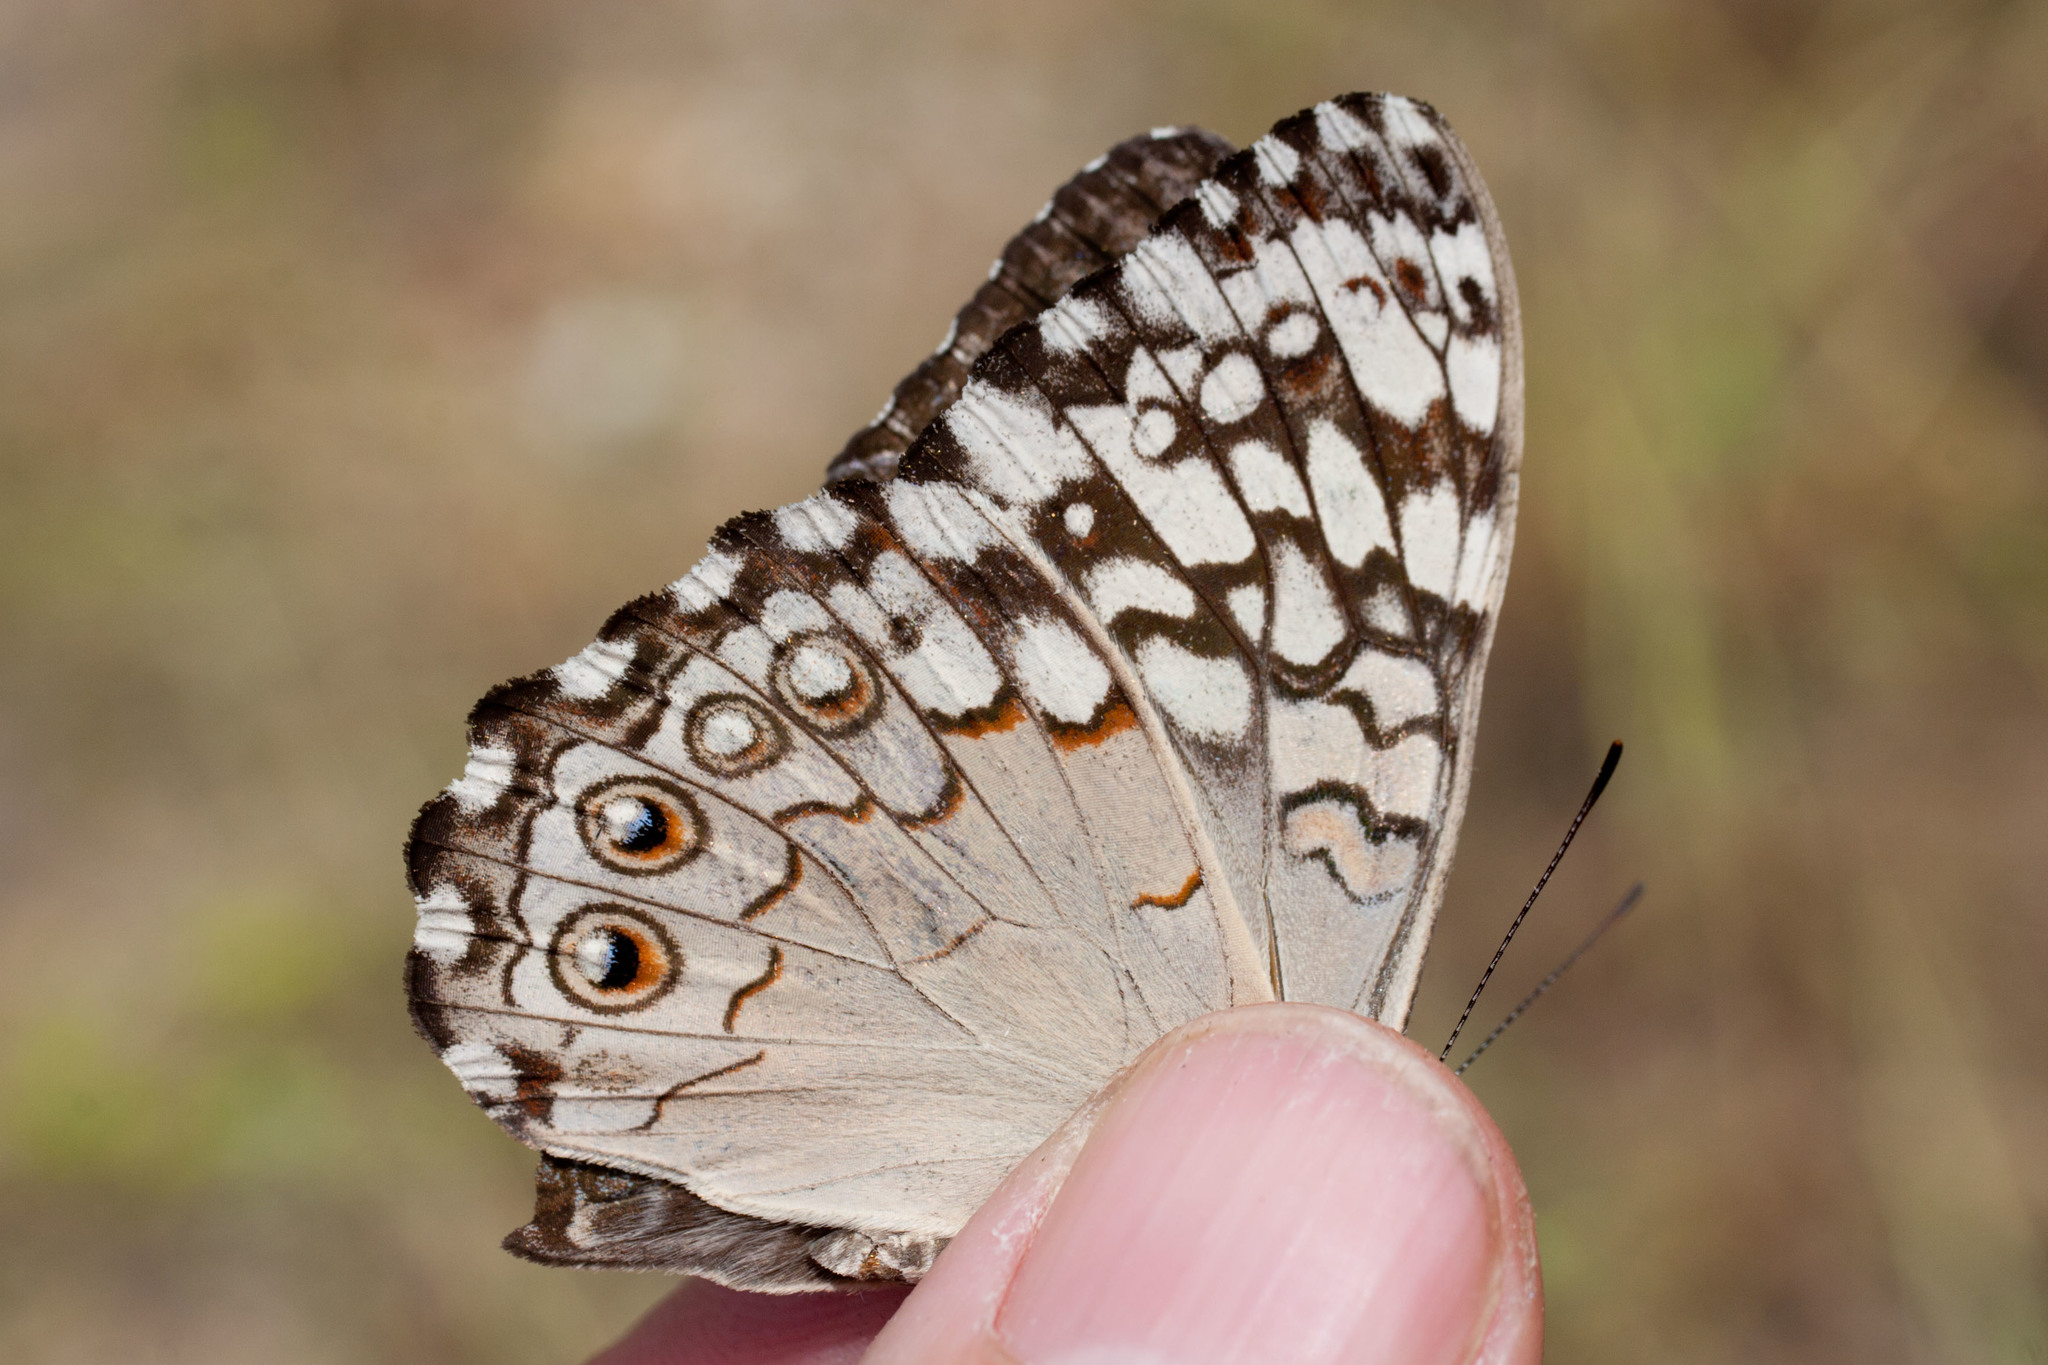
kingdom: Animalia
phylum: Arthropoda
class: Insecta
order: Lepidoptera
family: Nymphalidae
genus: Hamadryas
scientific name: Hamadryas februa
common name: Gray cracker
